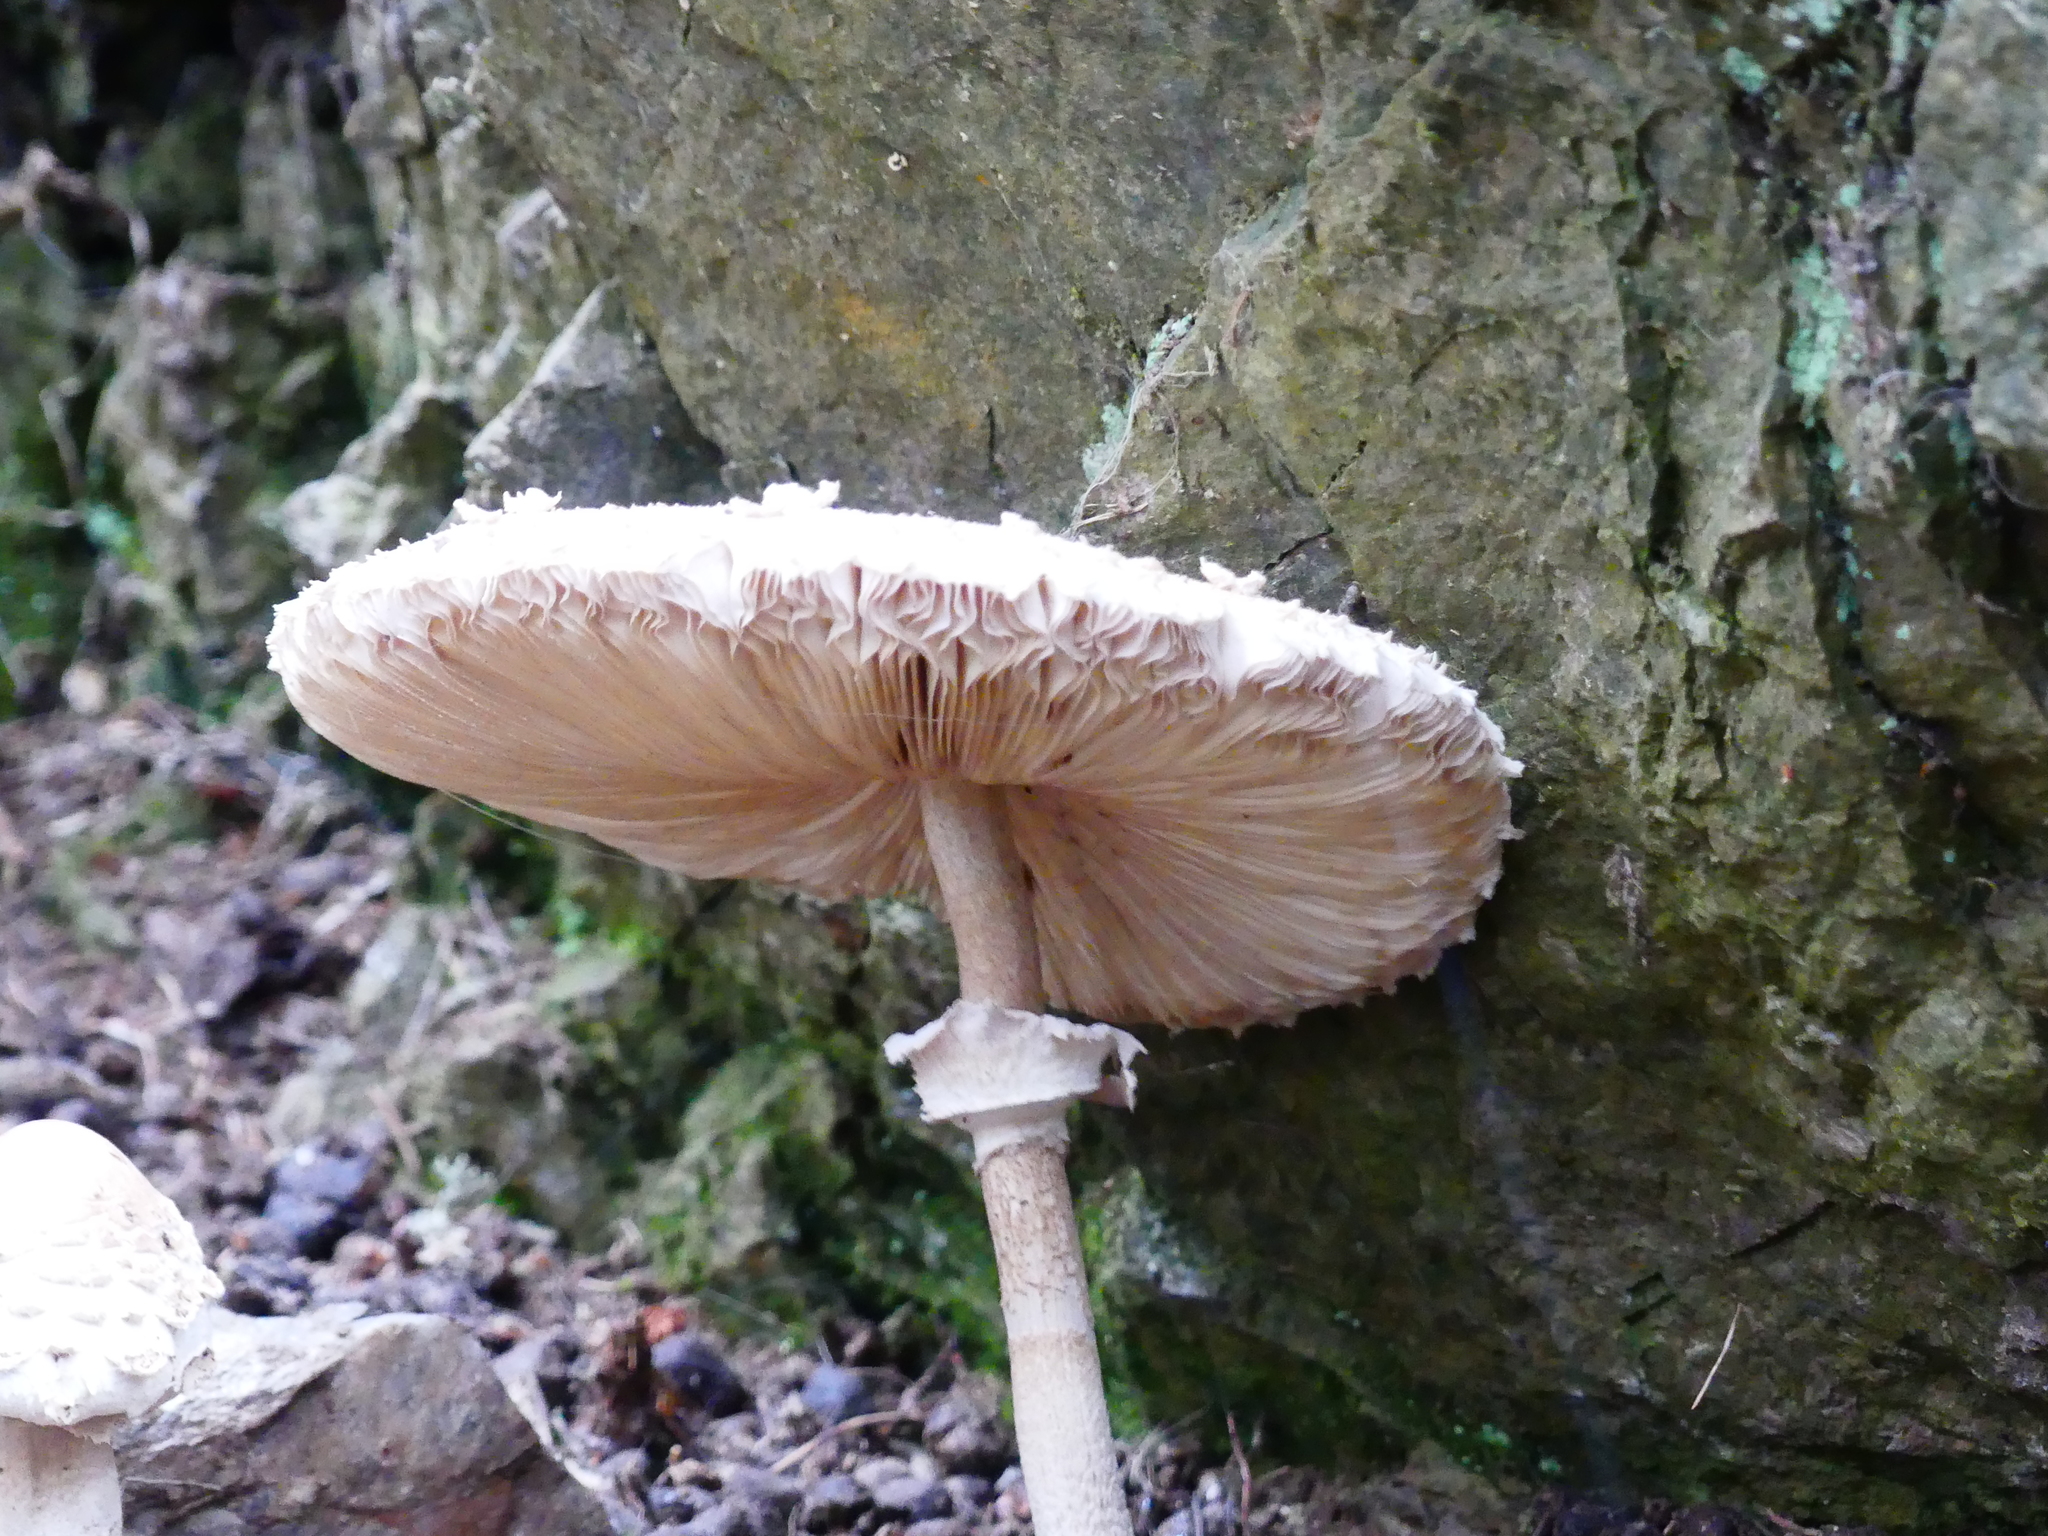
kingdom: Fungi
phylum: Basidiomycota
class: Agaricomycetes
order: Agaricales
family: Agaricaceae
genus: Macrolepiota
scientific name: Macrolepiota procera
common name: Parasol
